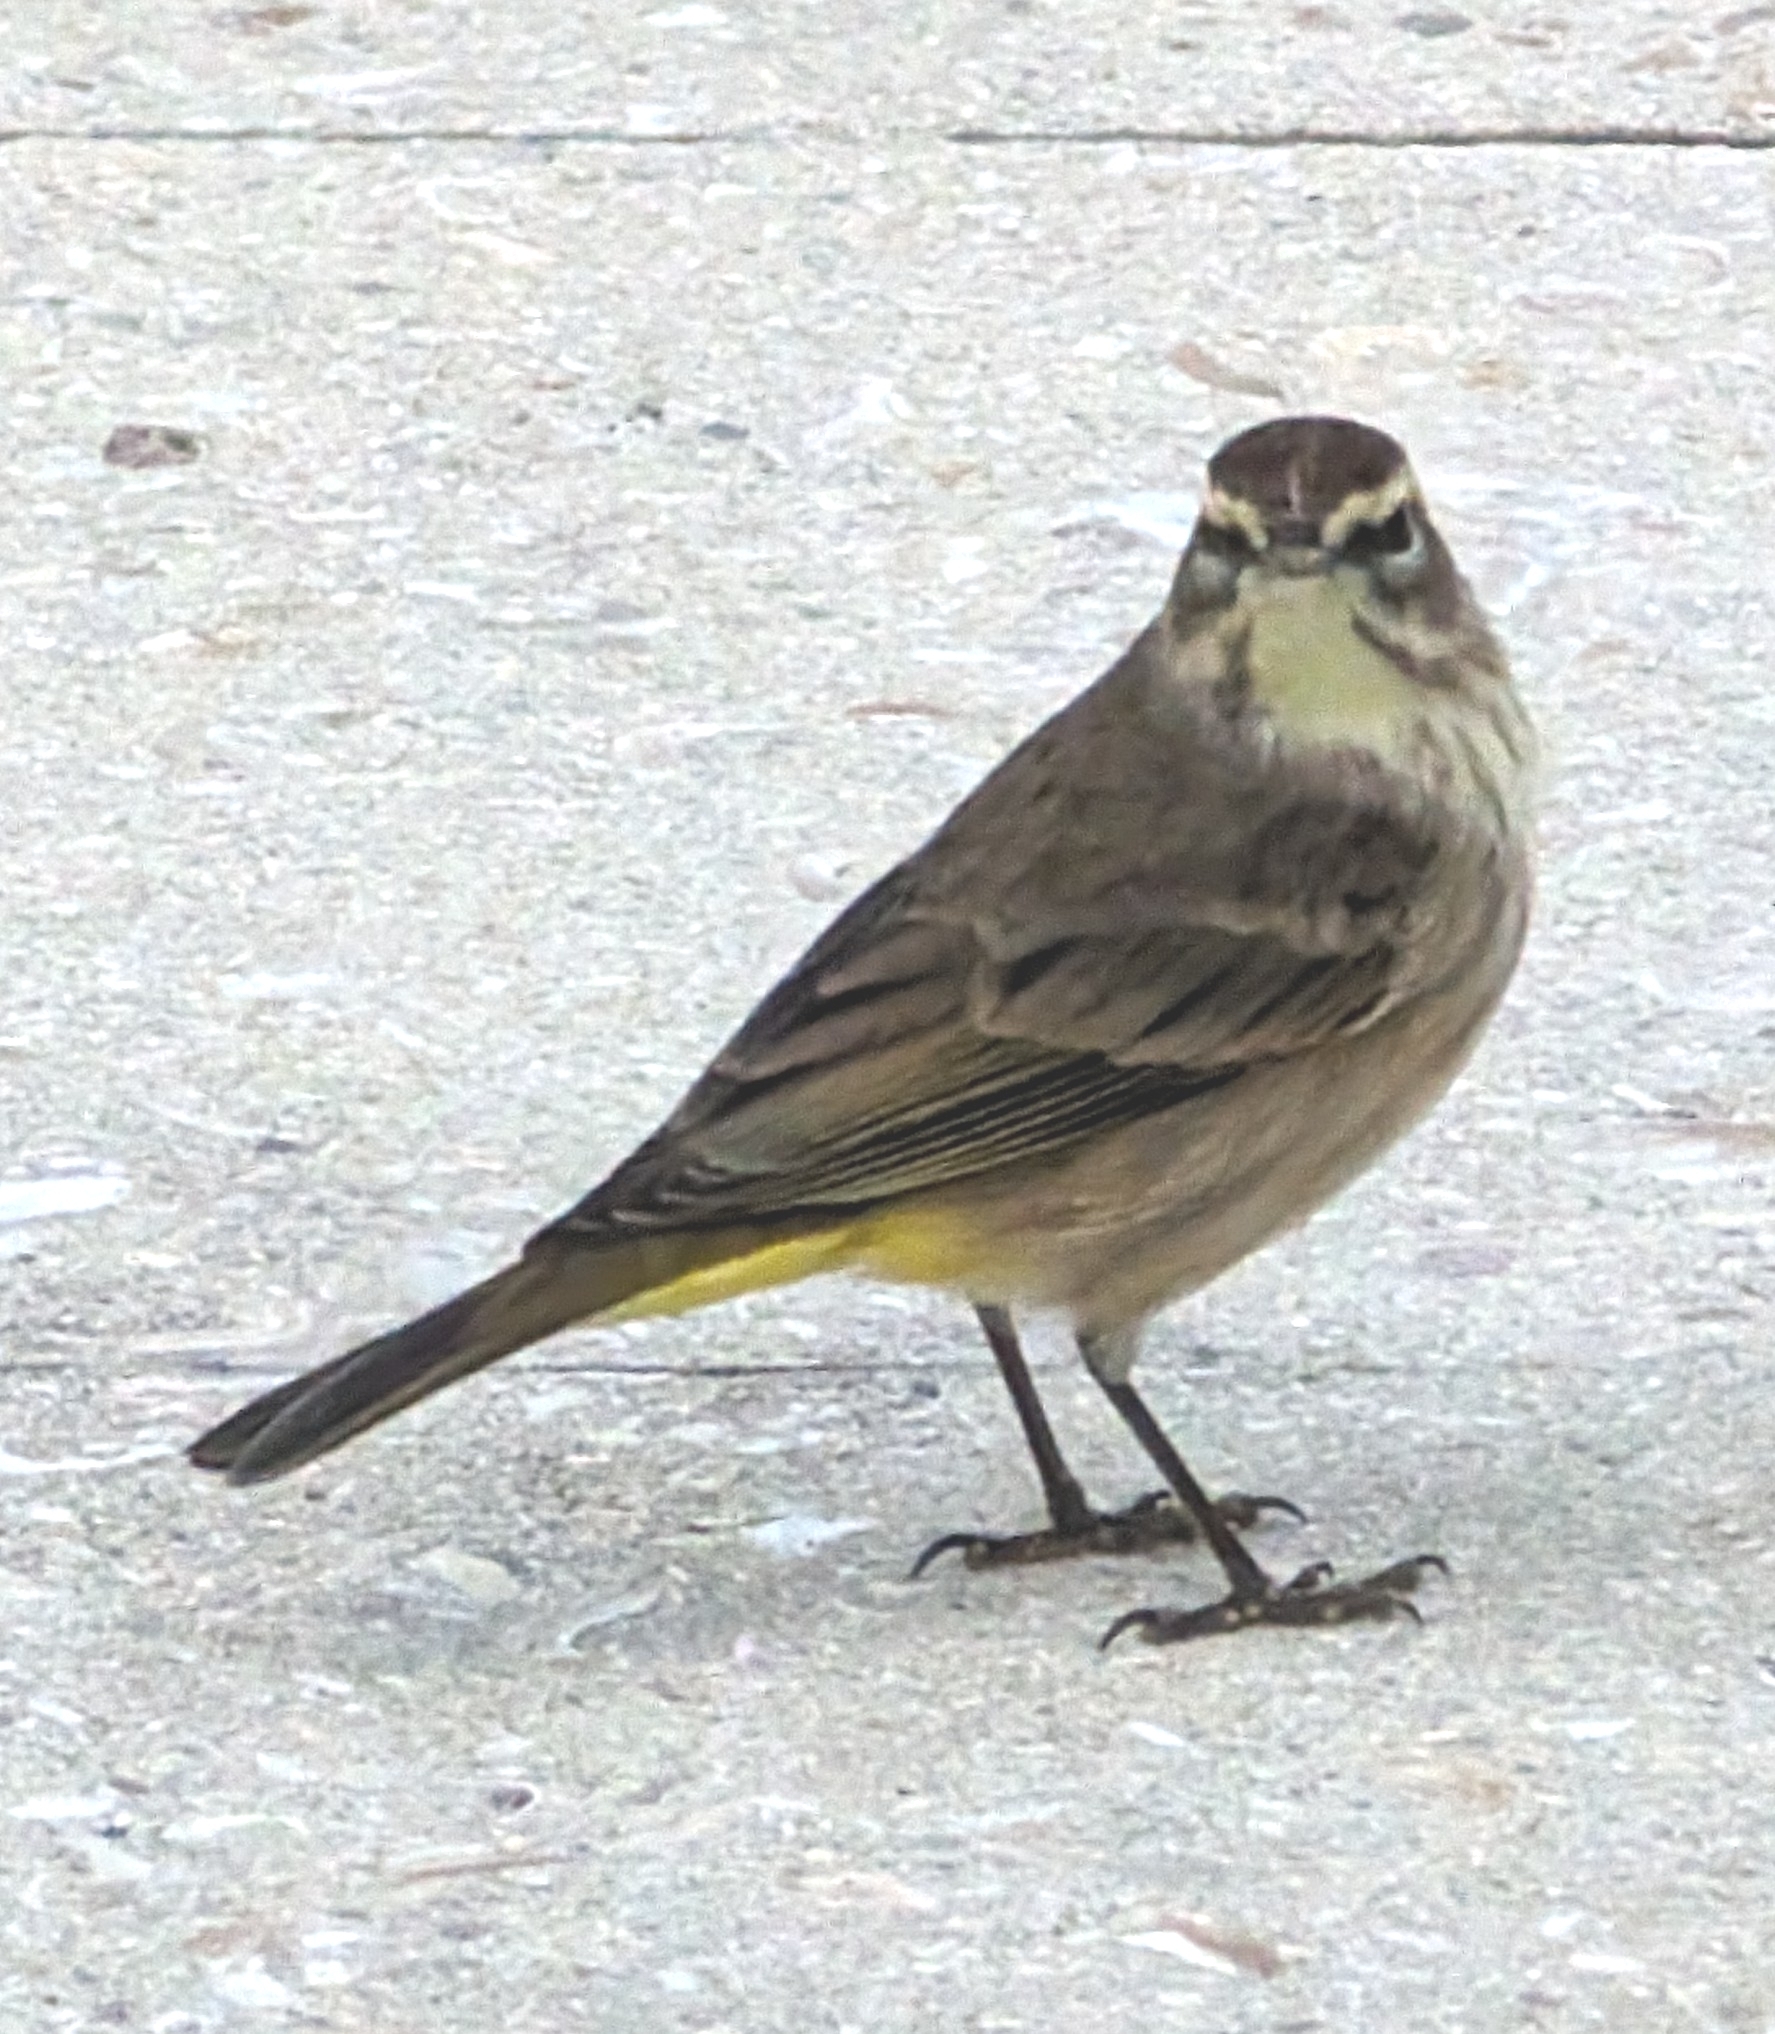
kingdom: Animalia
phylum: Chordata
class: Aves
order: Passeriformes
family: Parulidae
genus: Setophaga
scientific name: Setophaga palmarum
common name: Palm warbler
